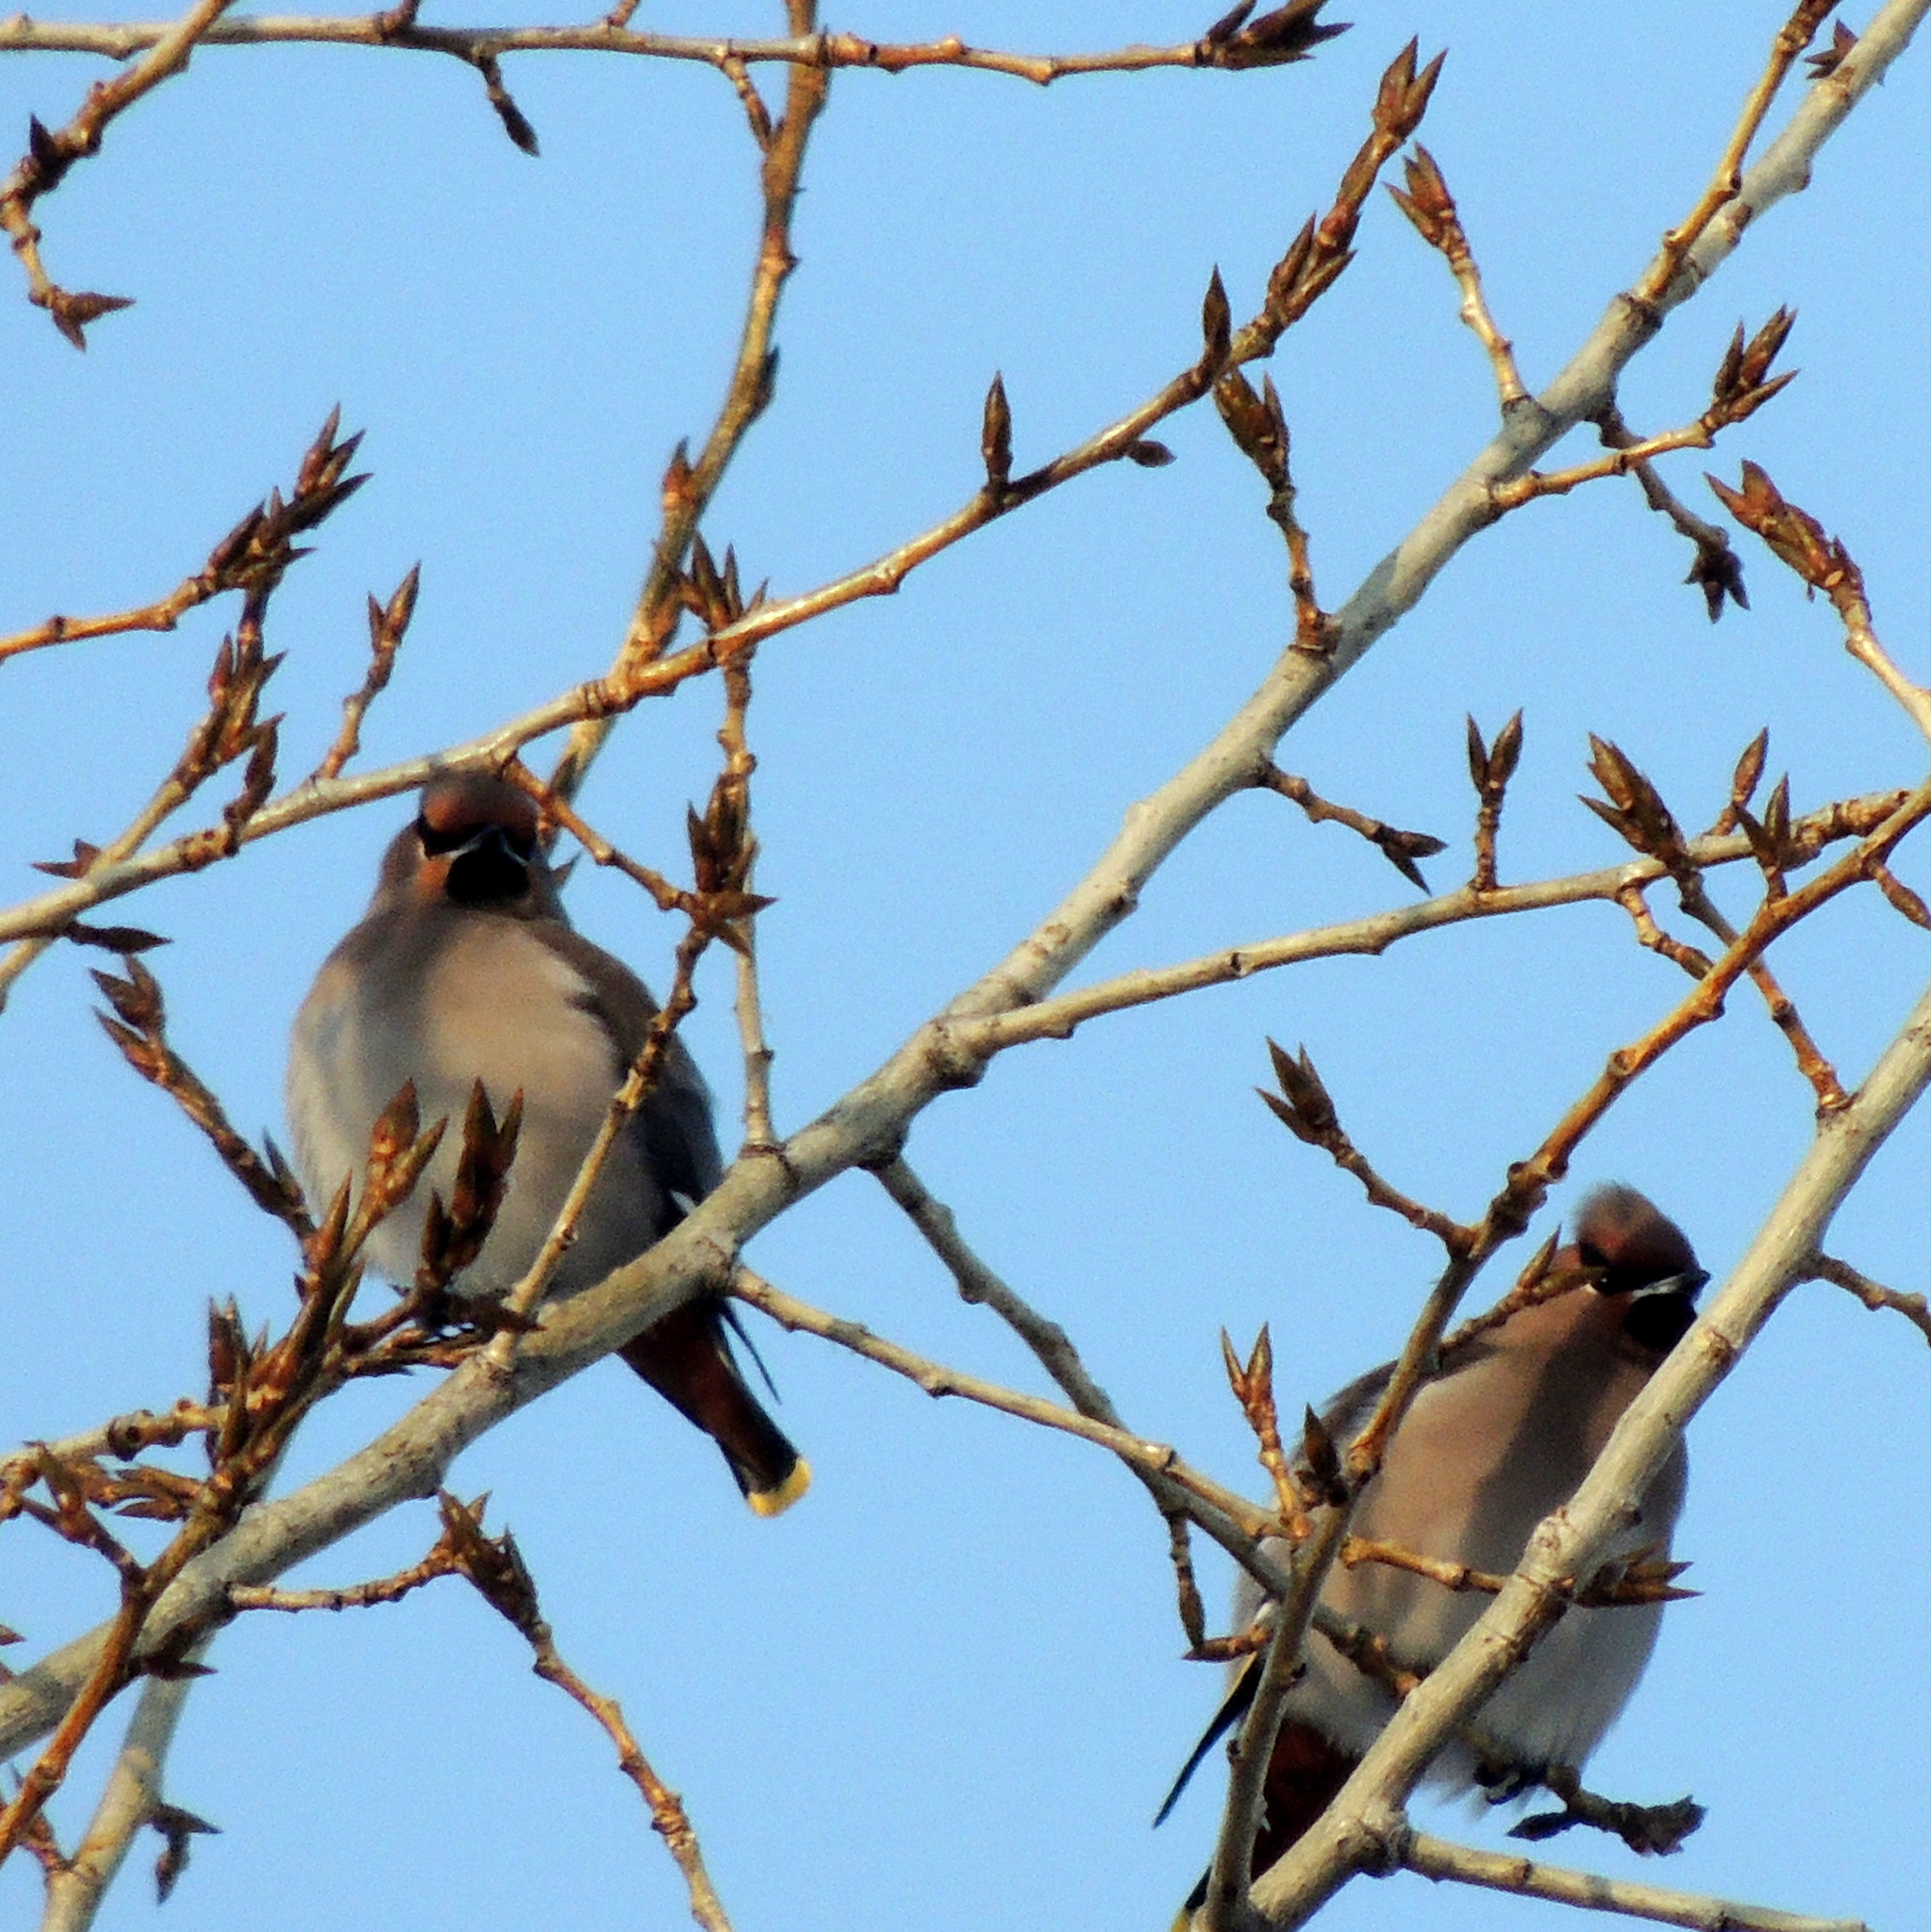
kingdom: Animalia
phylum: Chordata
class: Aves
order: Passeriformes
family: Bombycillidae
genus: Bombycilla
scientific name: Bombycilla garrulus
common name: Bohemian waxwing
